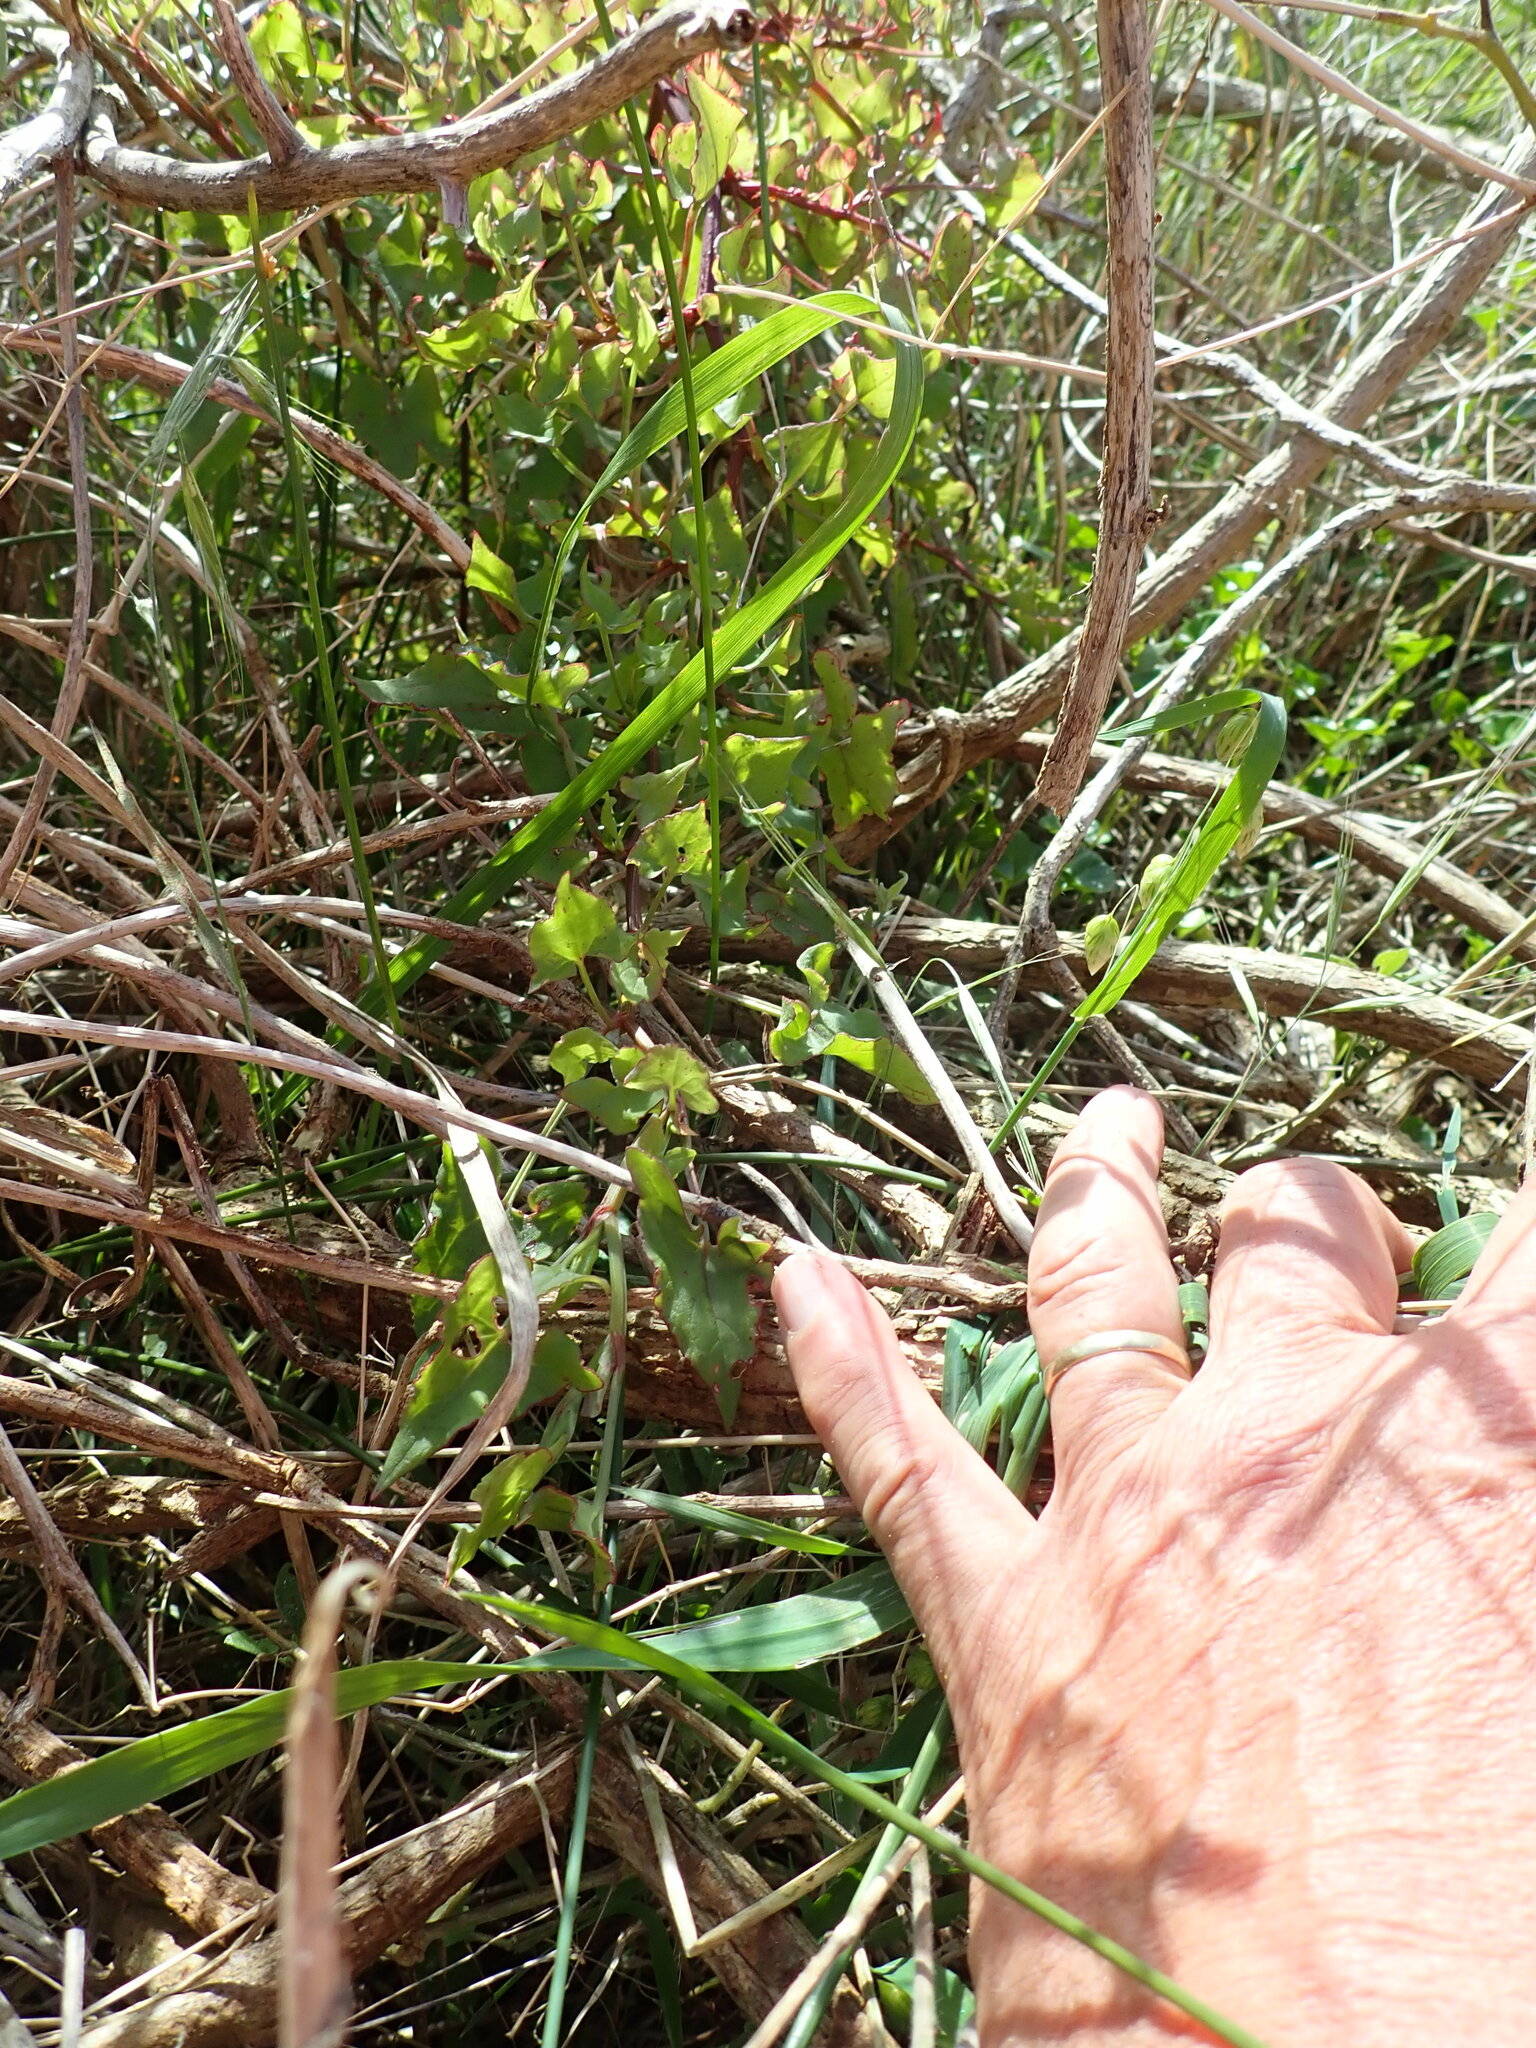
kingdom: Plantae
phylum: Tracheophyta
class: Magnoliopsida
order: Caryophyllales
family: Polygonaceae
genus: Rumex
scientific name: Rumex sagittatus
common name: Climbing dock
